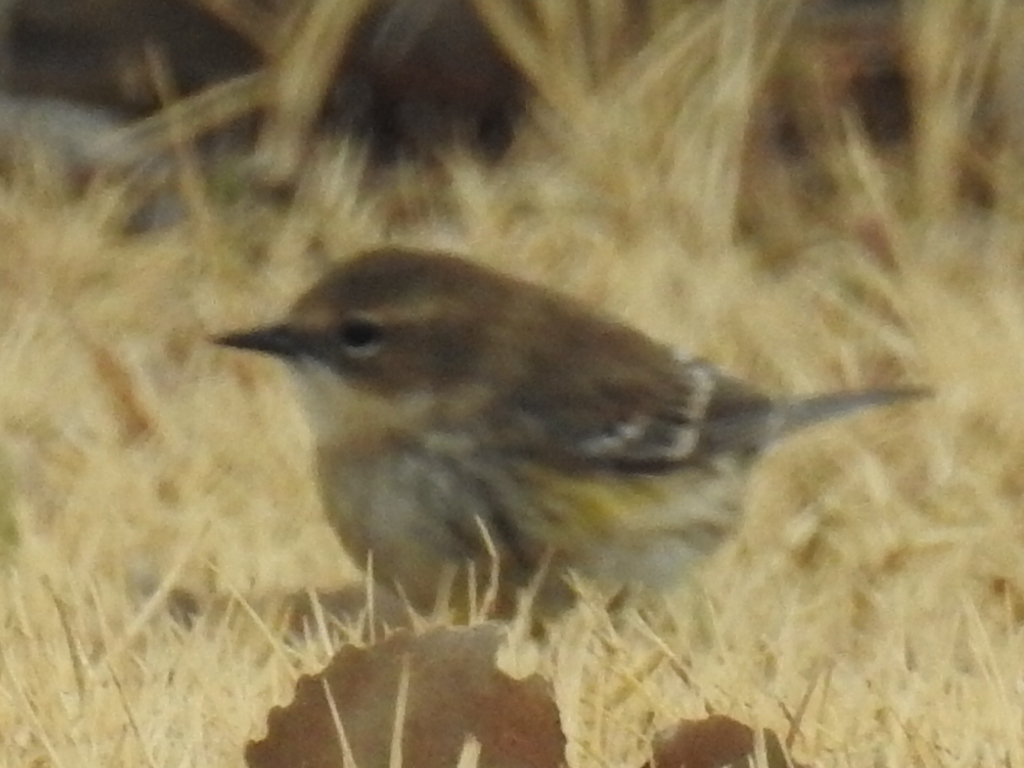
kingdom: Animalia
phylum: Chordata
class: Aves
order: Passeriformes
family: Parulidae
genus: Setophaga
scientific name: Setophaga coronata
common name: Myrtle warbler
